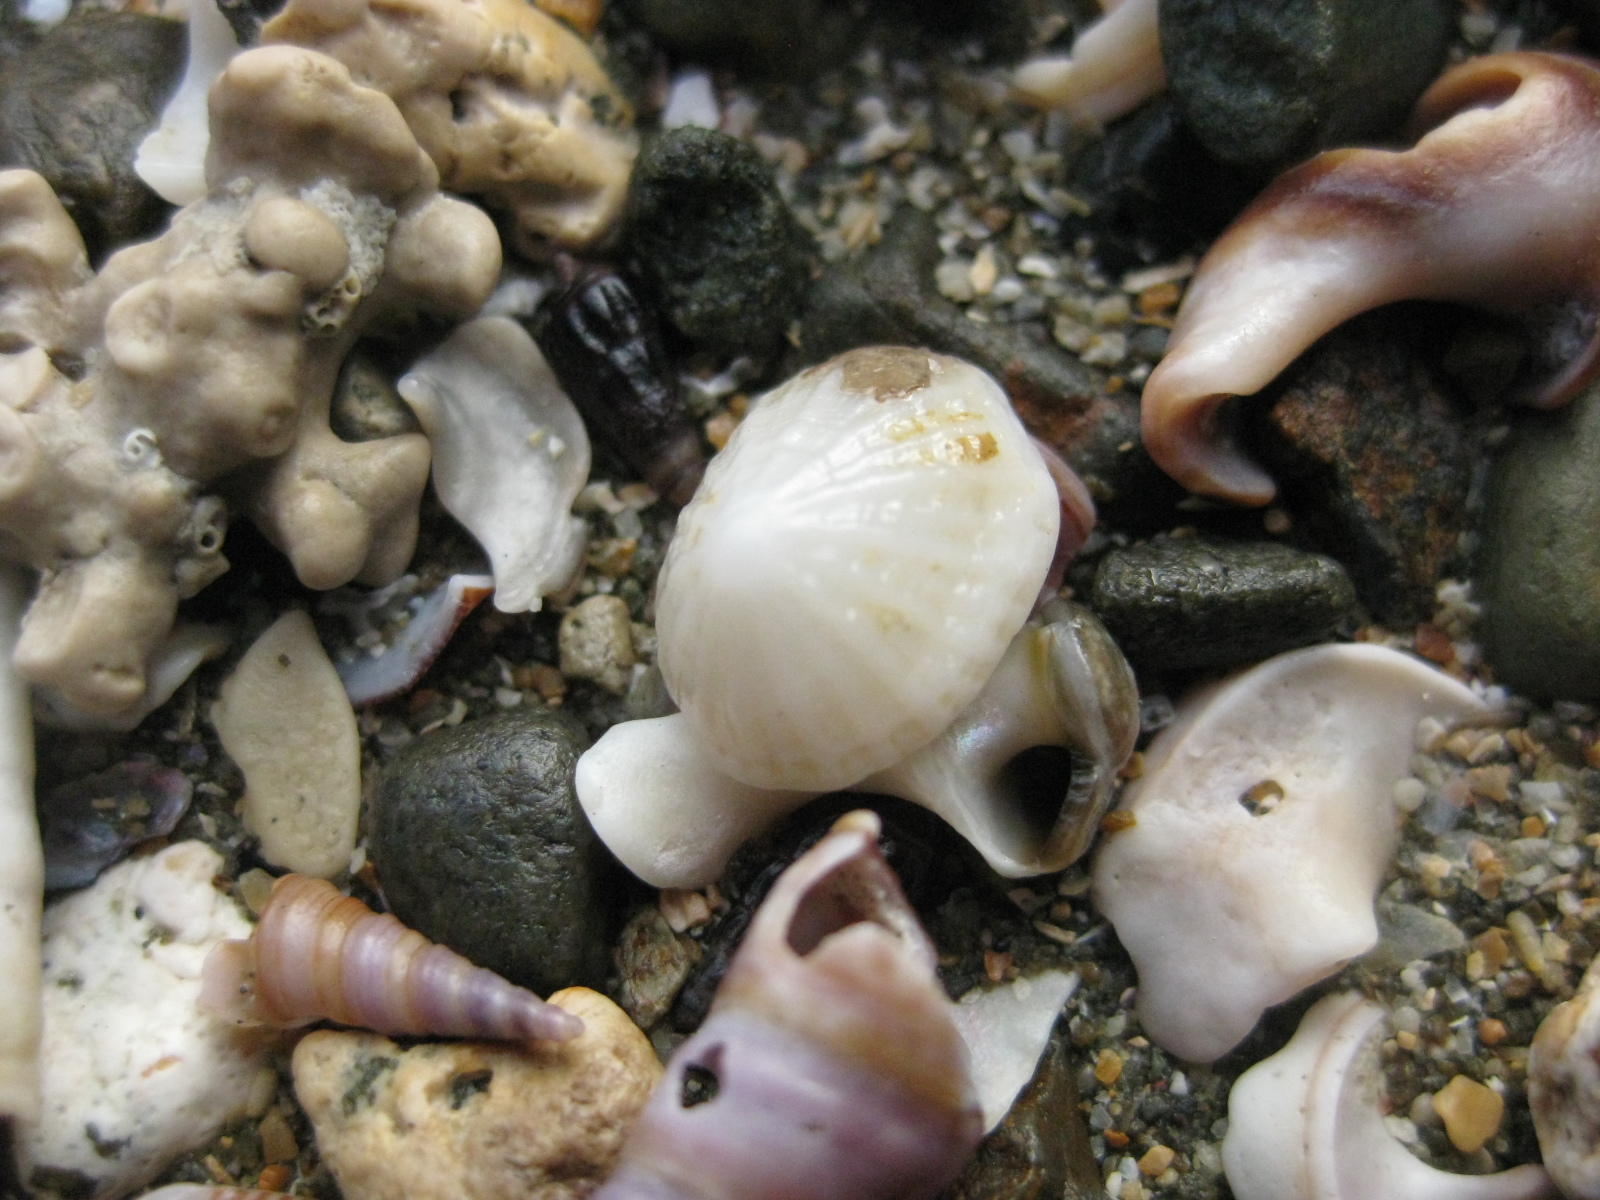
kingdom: Animalia
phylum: Mollusca
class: Gastropoda
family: Lottiidae
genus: Radiacmea
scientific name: Radiacmea inconspicua
